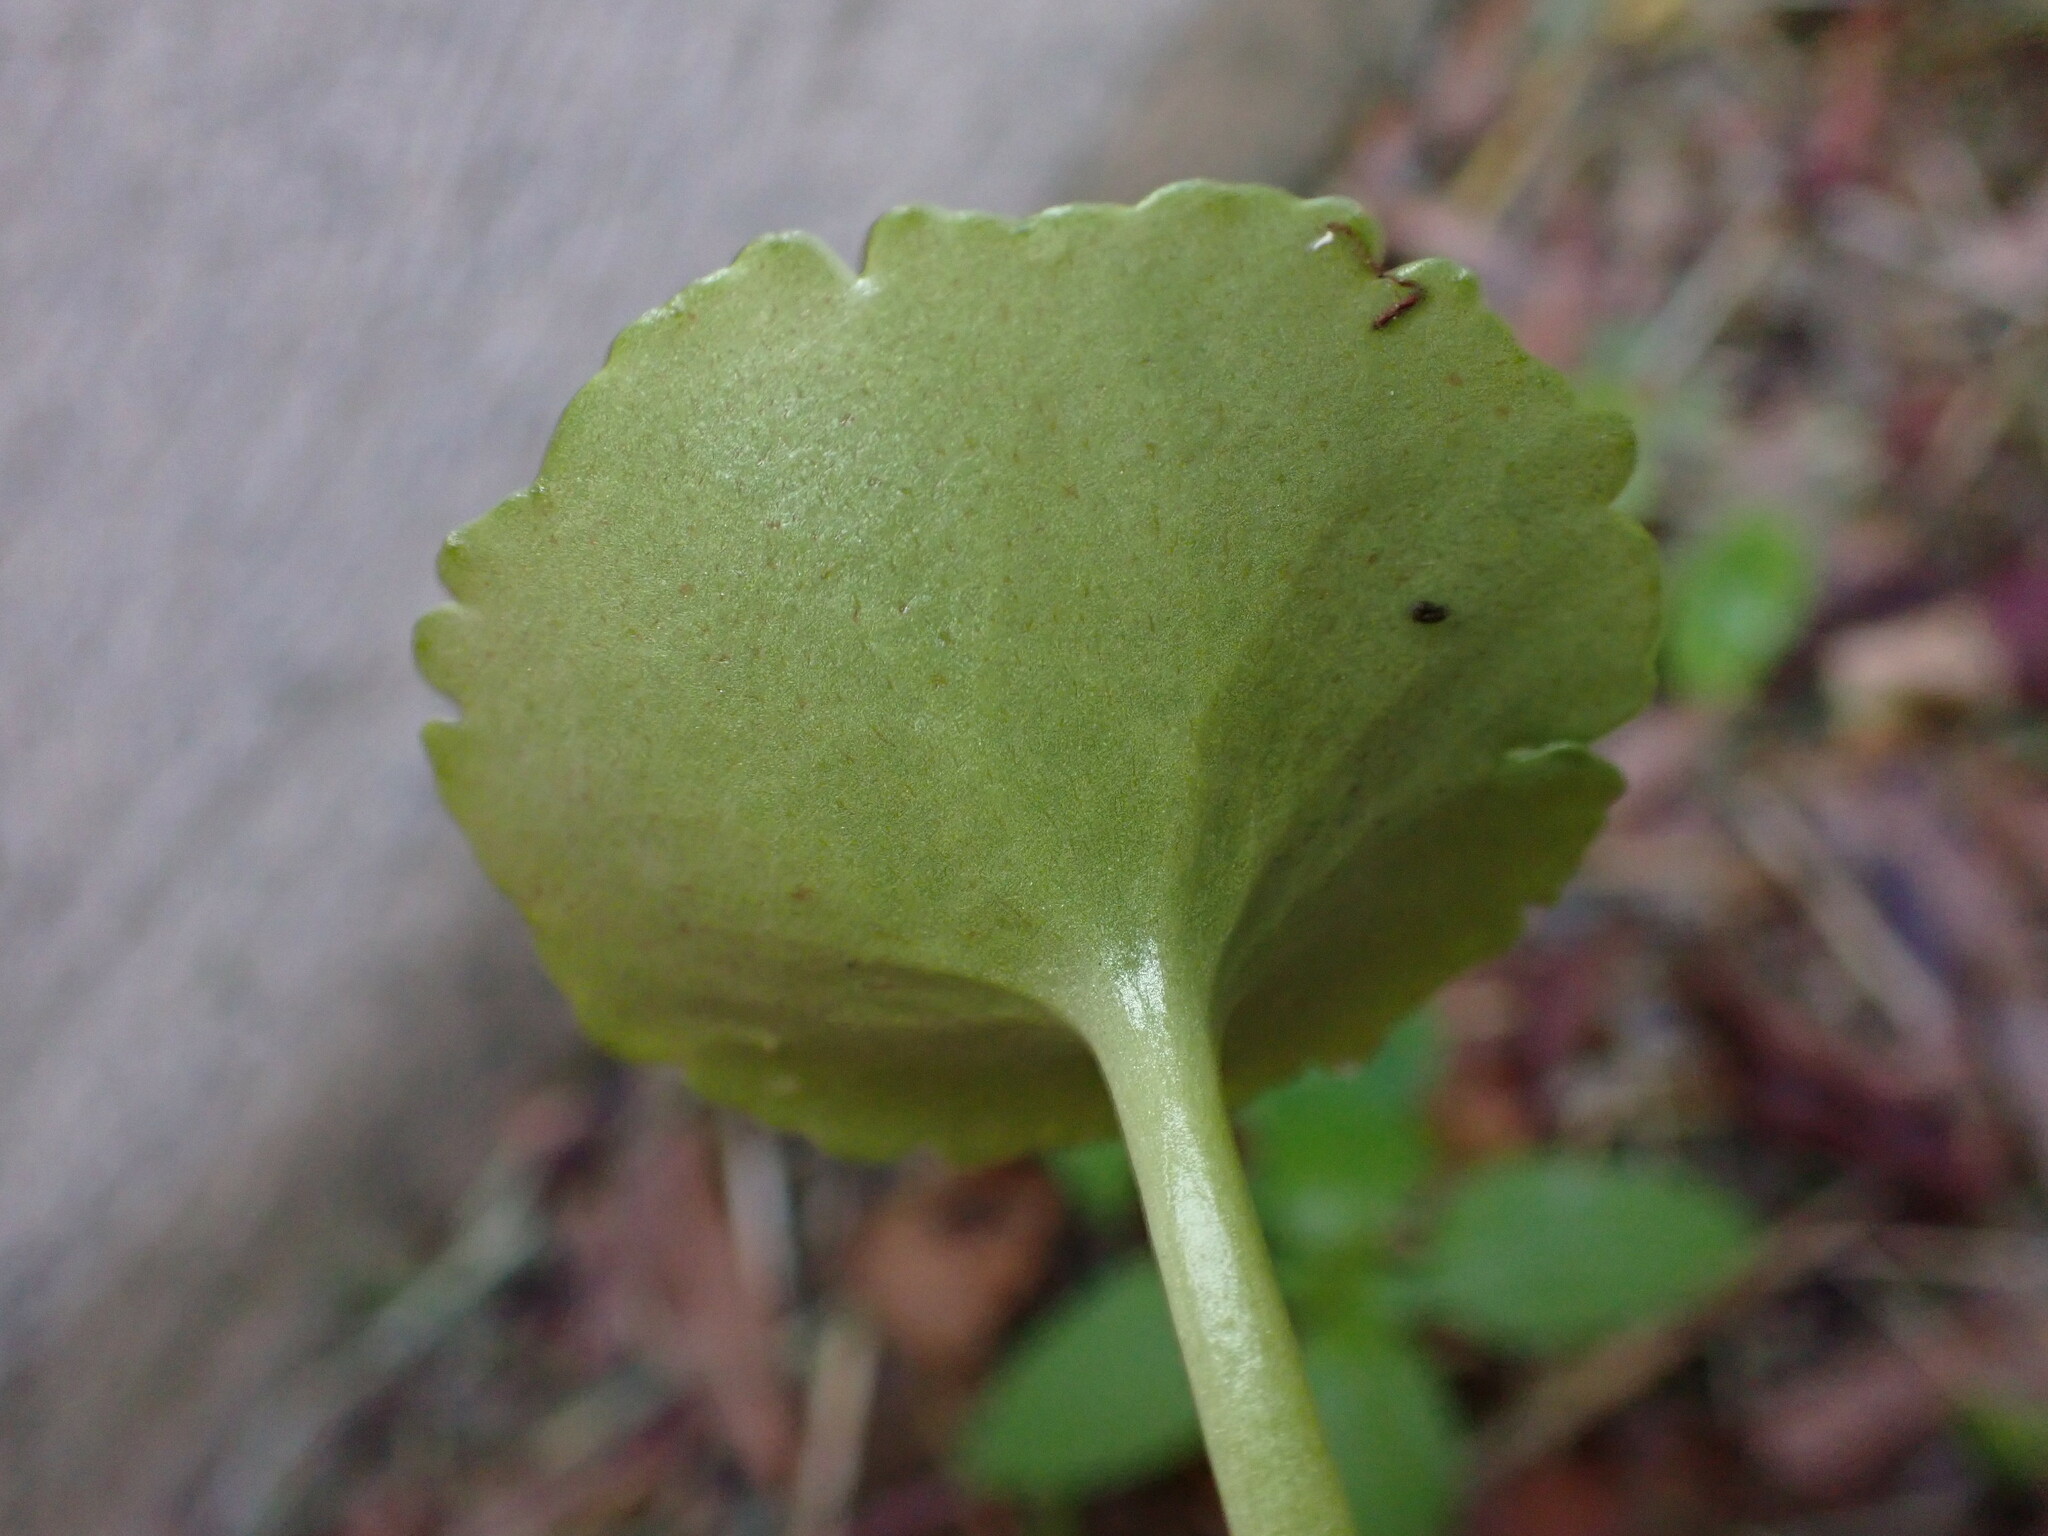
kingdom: Plantae
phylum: Tracheophyta
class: Magnoliopsida
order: Saxifragales
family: Crassulaceae
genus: Umbilicus
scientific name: Umbilicus rupestris
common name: Navelwort
